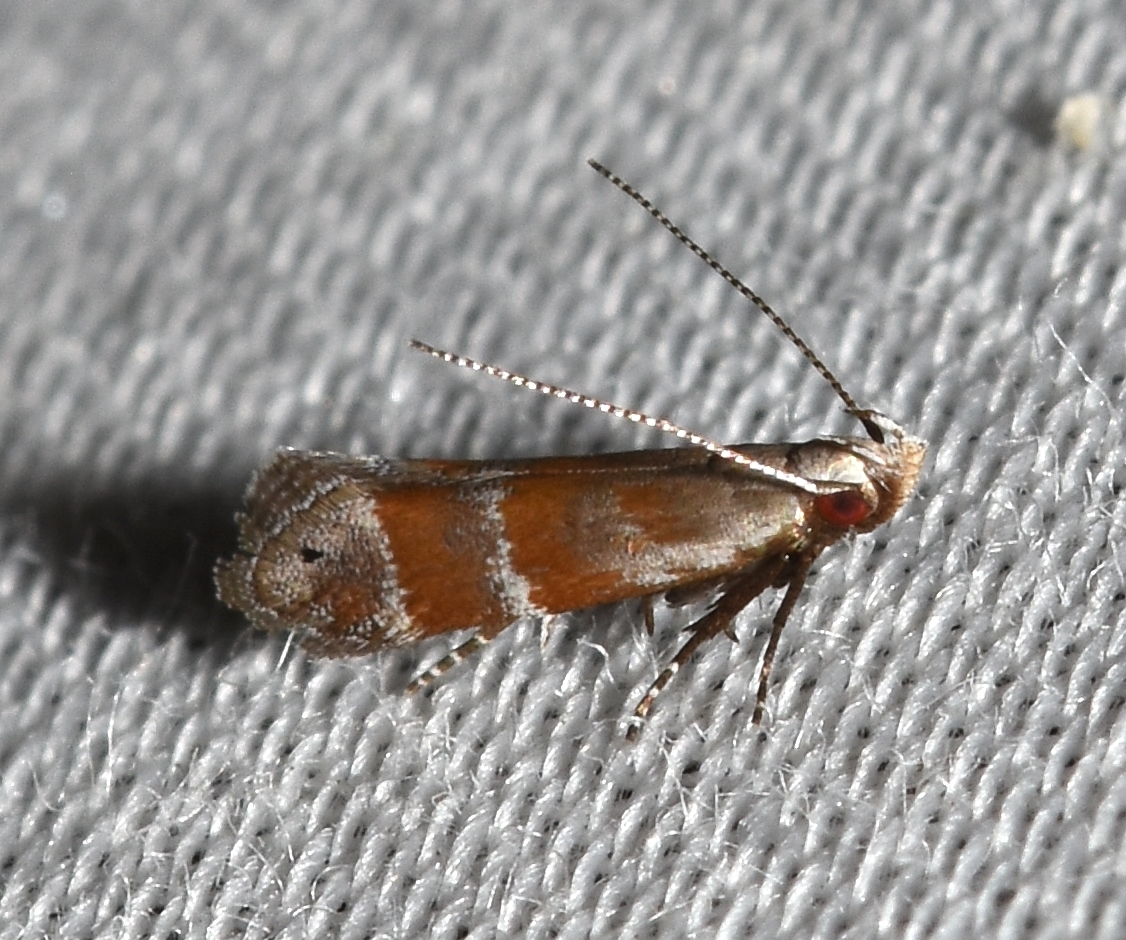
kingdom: Animalia
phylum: Arthropoda
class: Insecta
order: Lepidoptera
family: Gelechiidae
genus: Battaristis
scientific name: Battaristis vittella
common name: Orange stripe-backed moth
